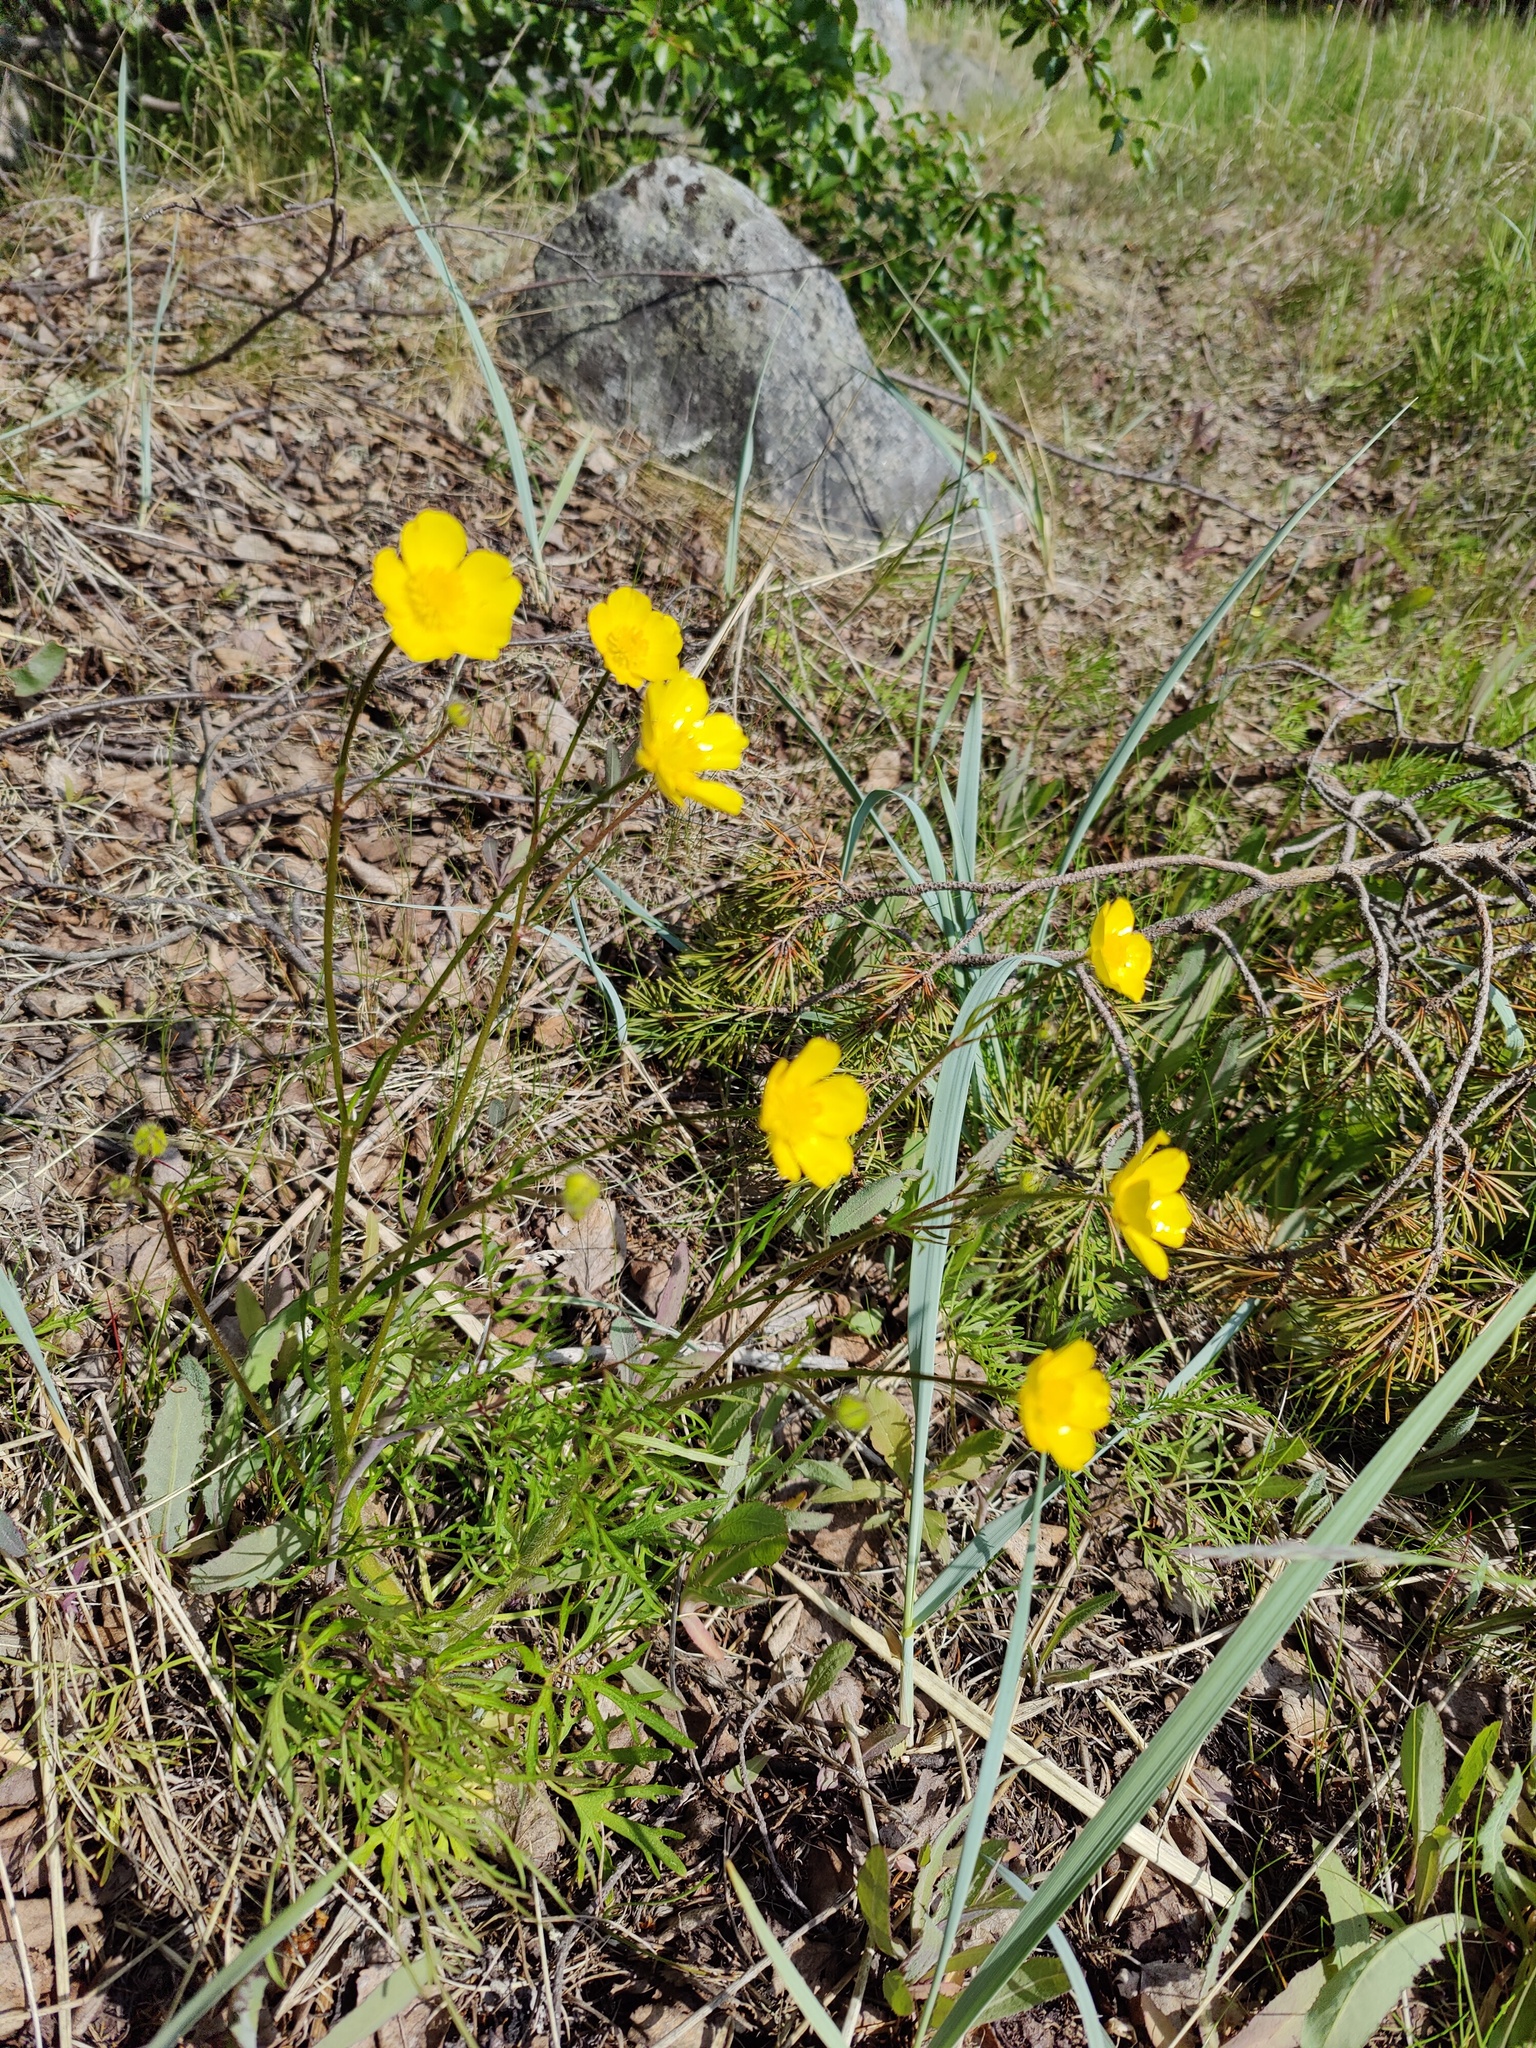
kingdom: Plantae
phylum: Tracheophyta
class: Magnoliopsida
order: Ranunculales
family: Ranunculaceae
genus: Ranunculus
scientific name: Ranunculus polyanthemos
